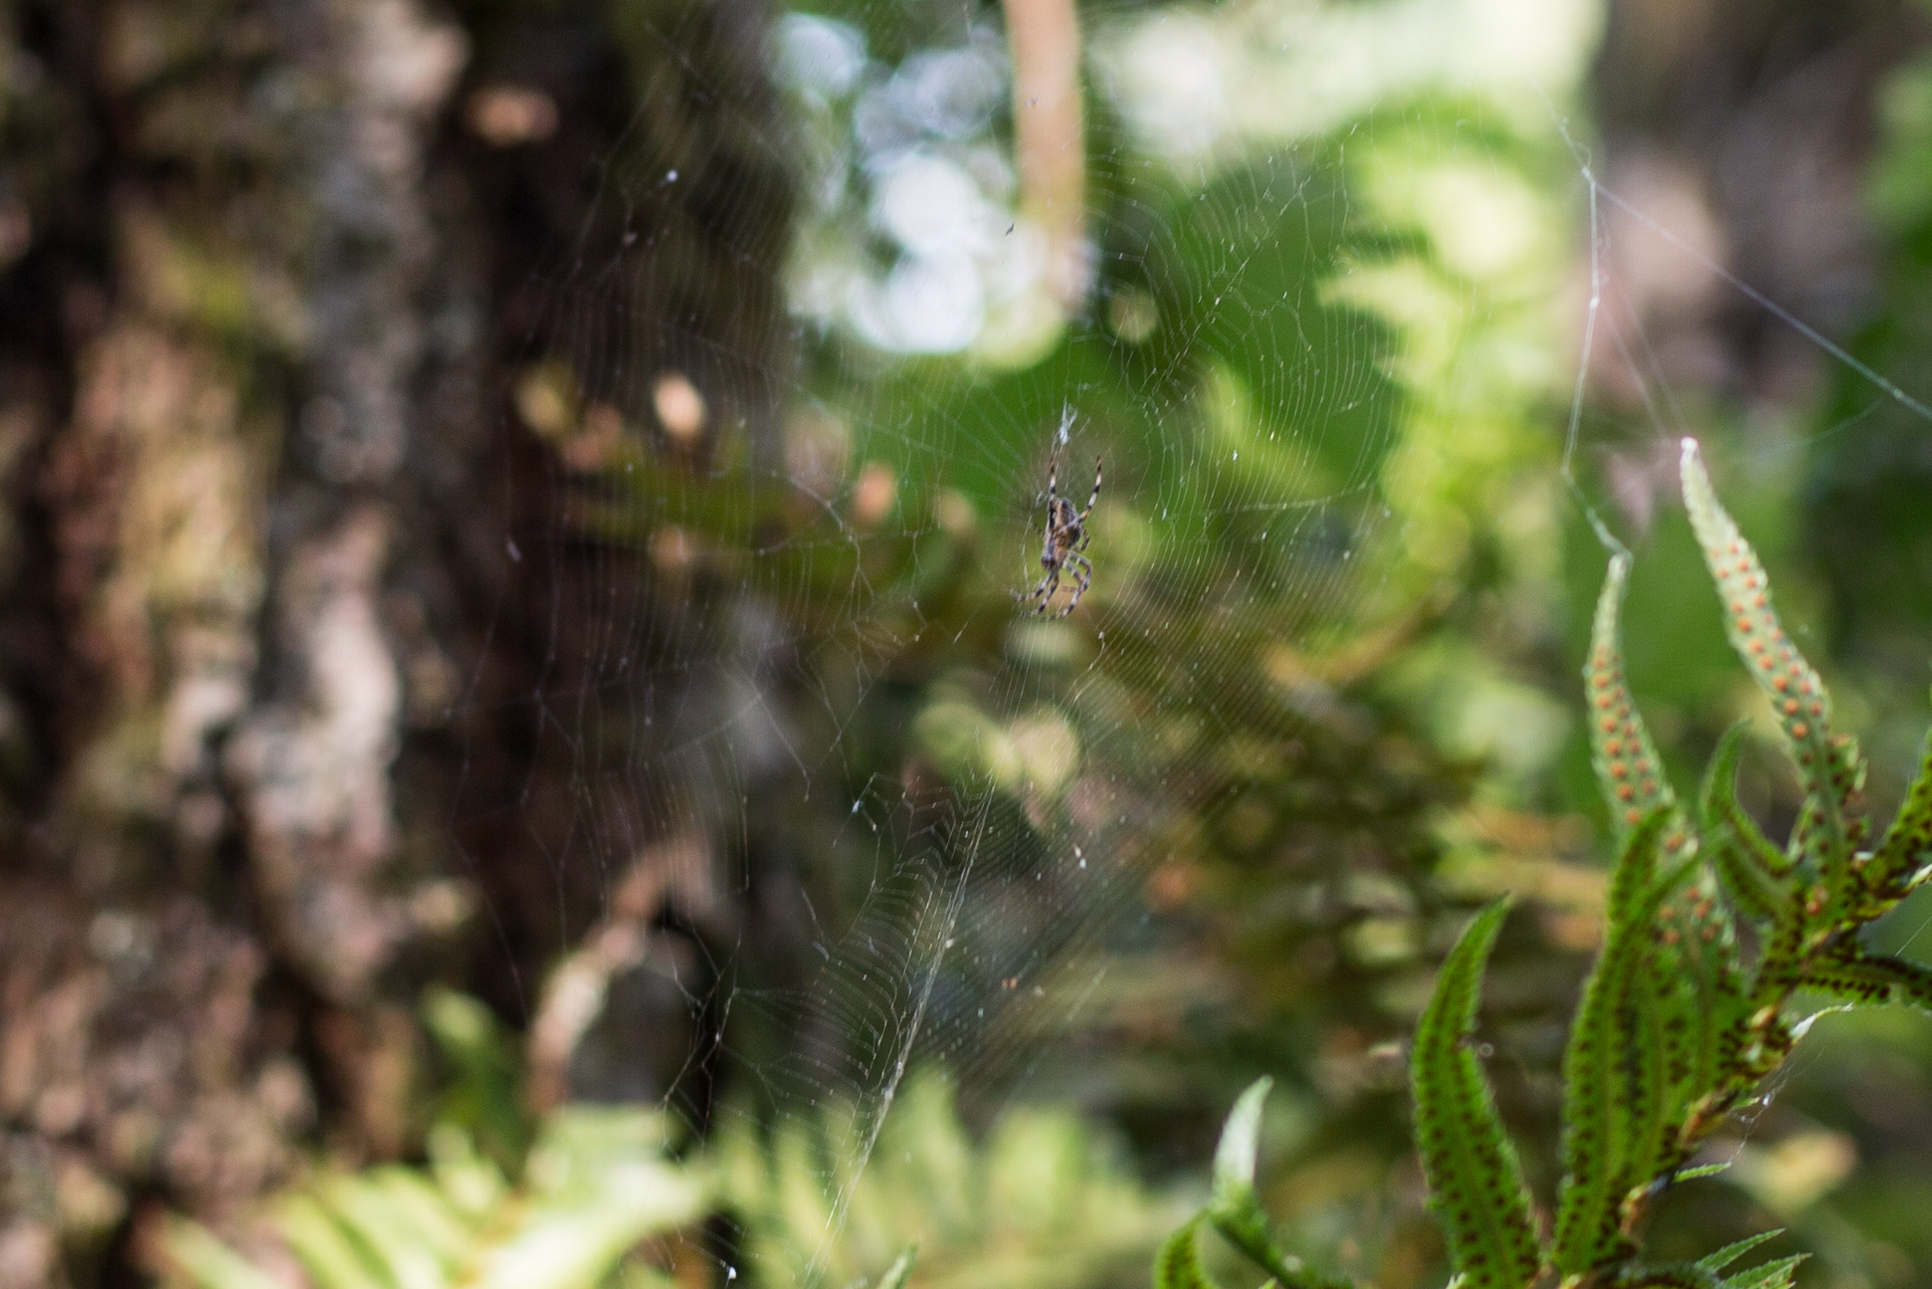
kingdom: Animalia
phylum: Arthropoda
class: Arachnida
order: Araneae
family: Araneidae
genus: Araneus
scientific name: Araneus diadematus
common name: Cross orbweaver
